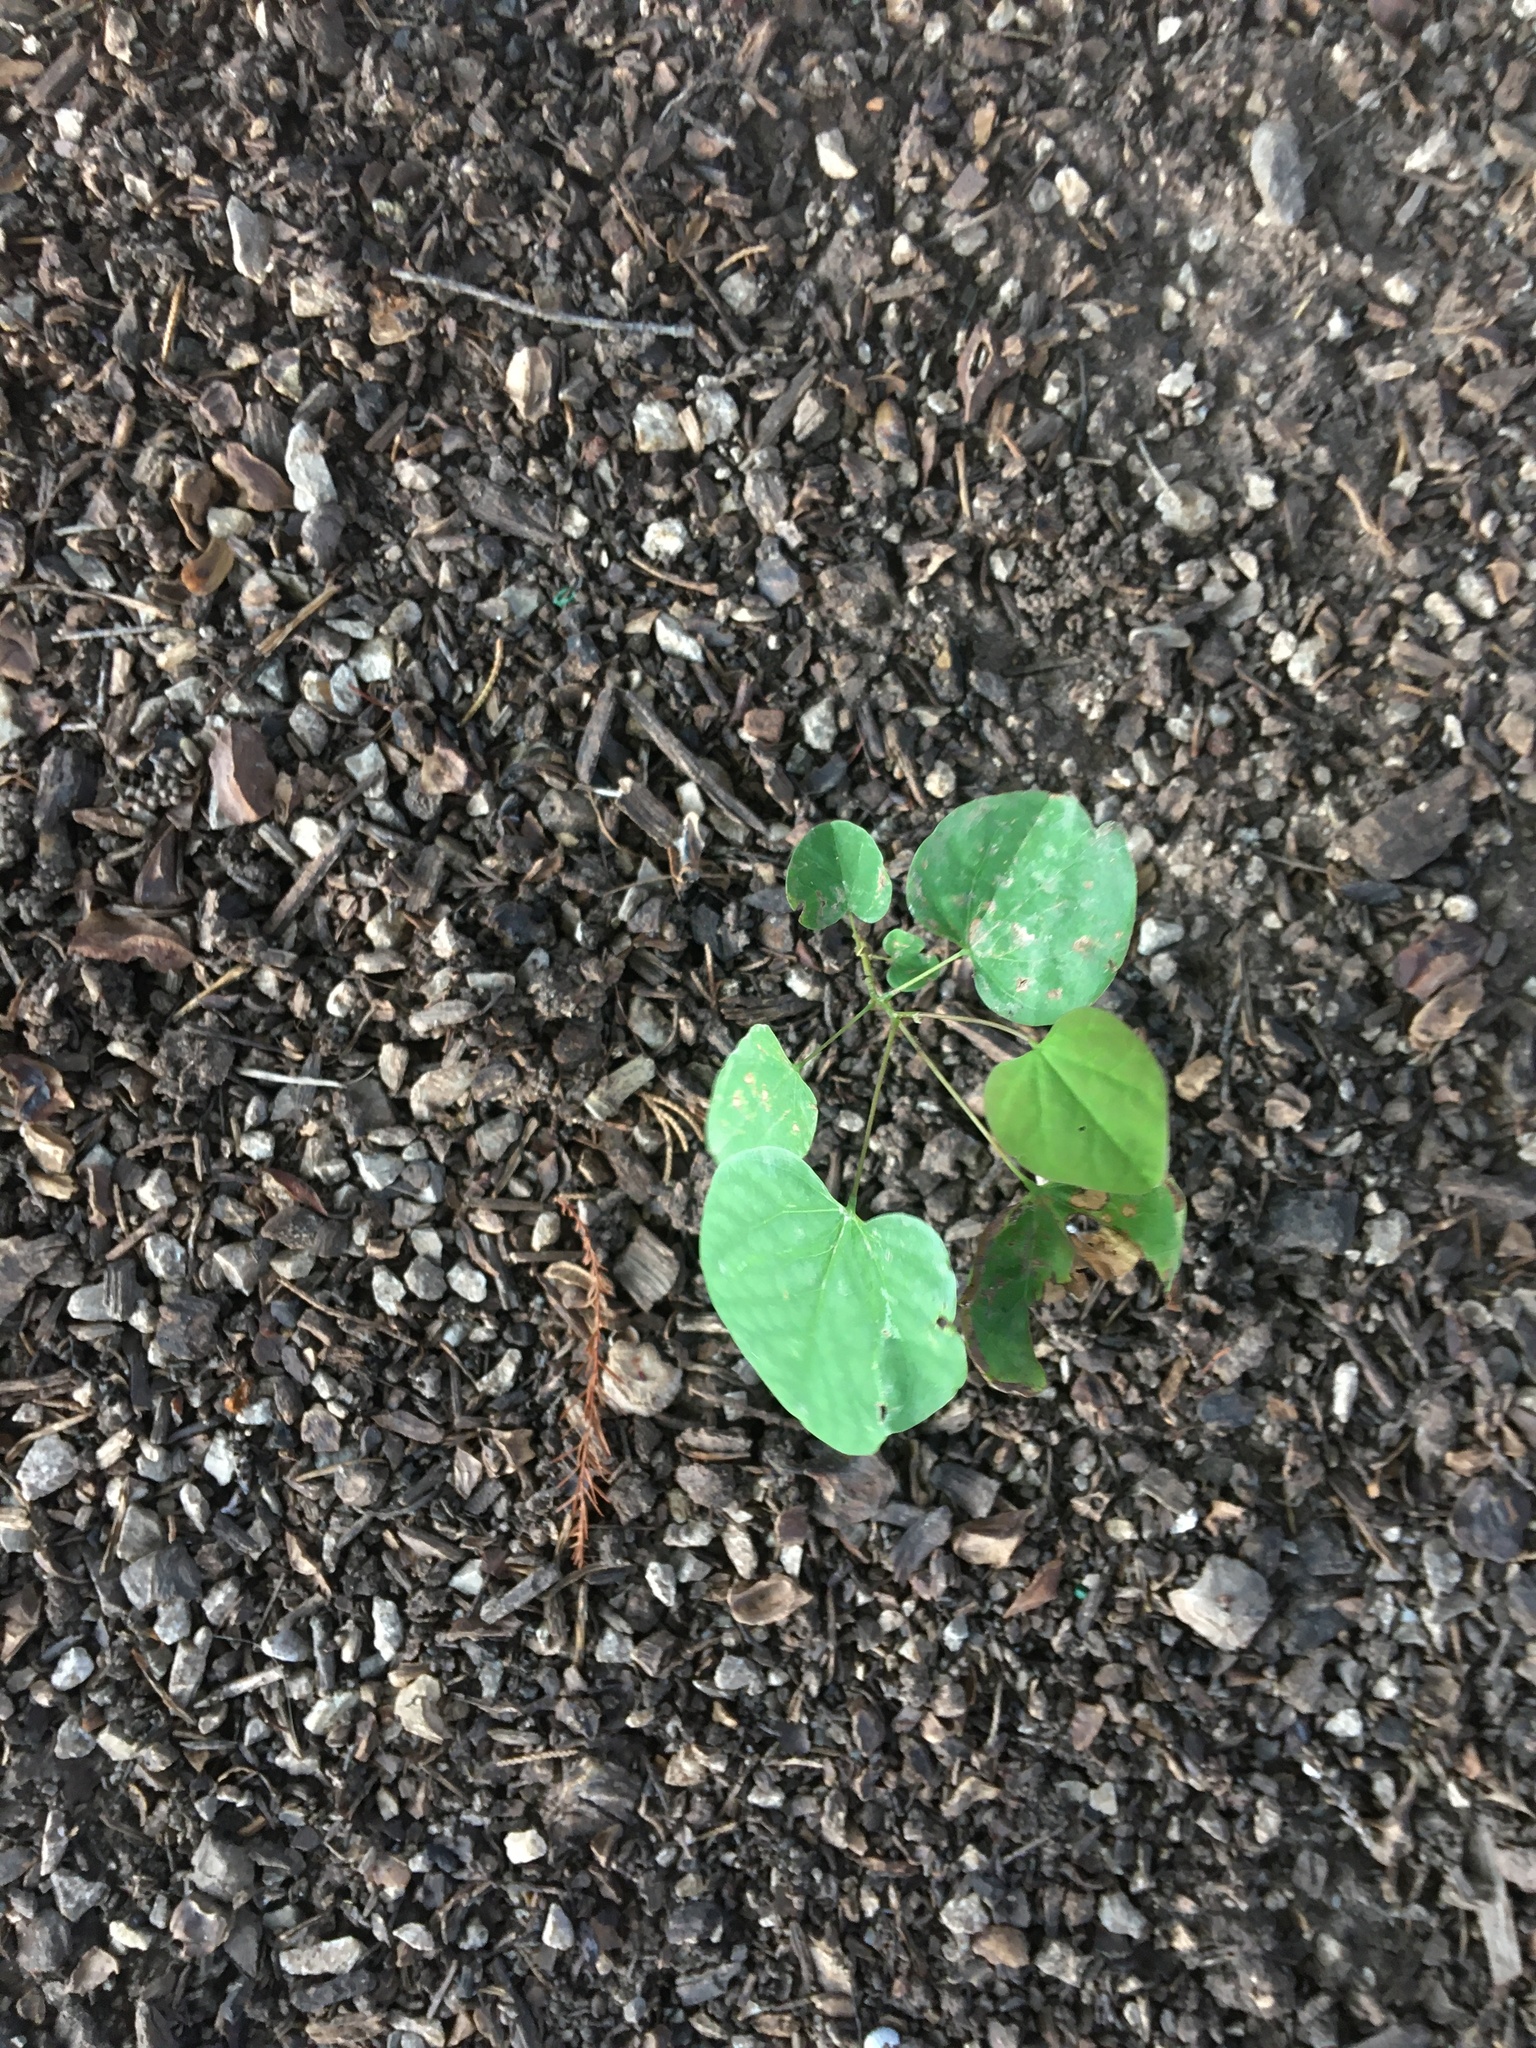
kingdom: Plantae
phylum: Tracheophyta
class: Magnoliopsida
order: Fabales
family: Fabaceae
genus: Cercis
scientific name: Cercis canadensis
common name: Eastern redbud
